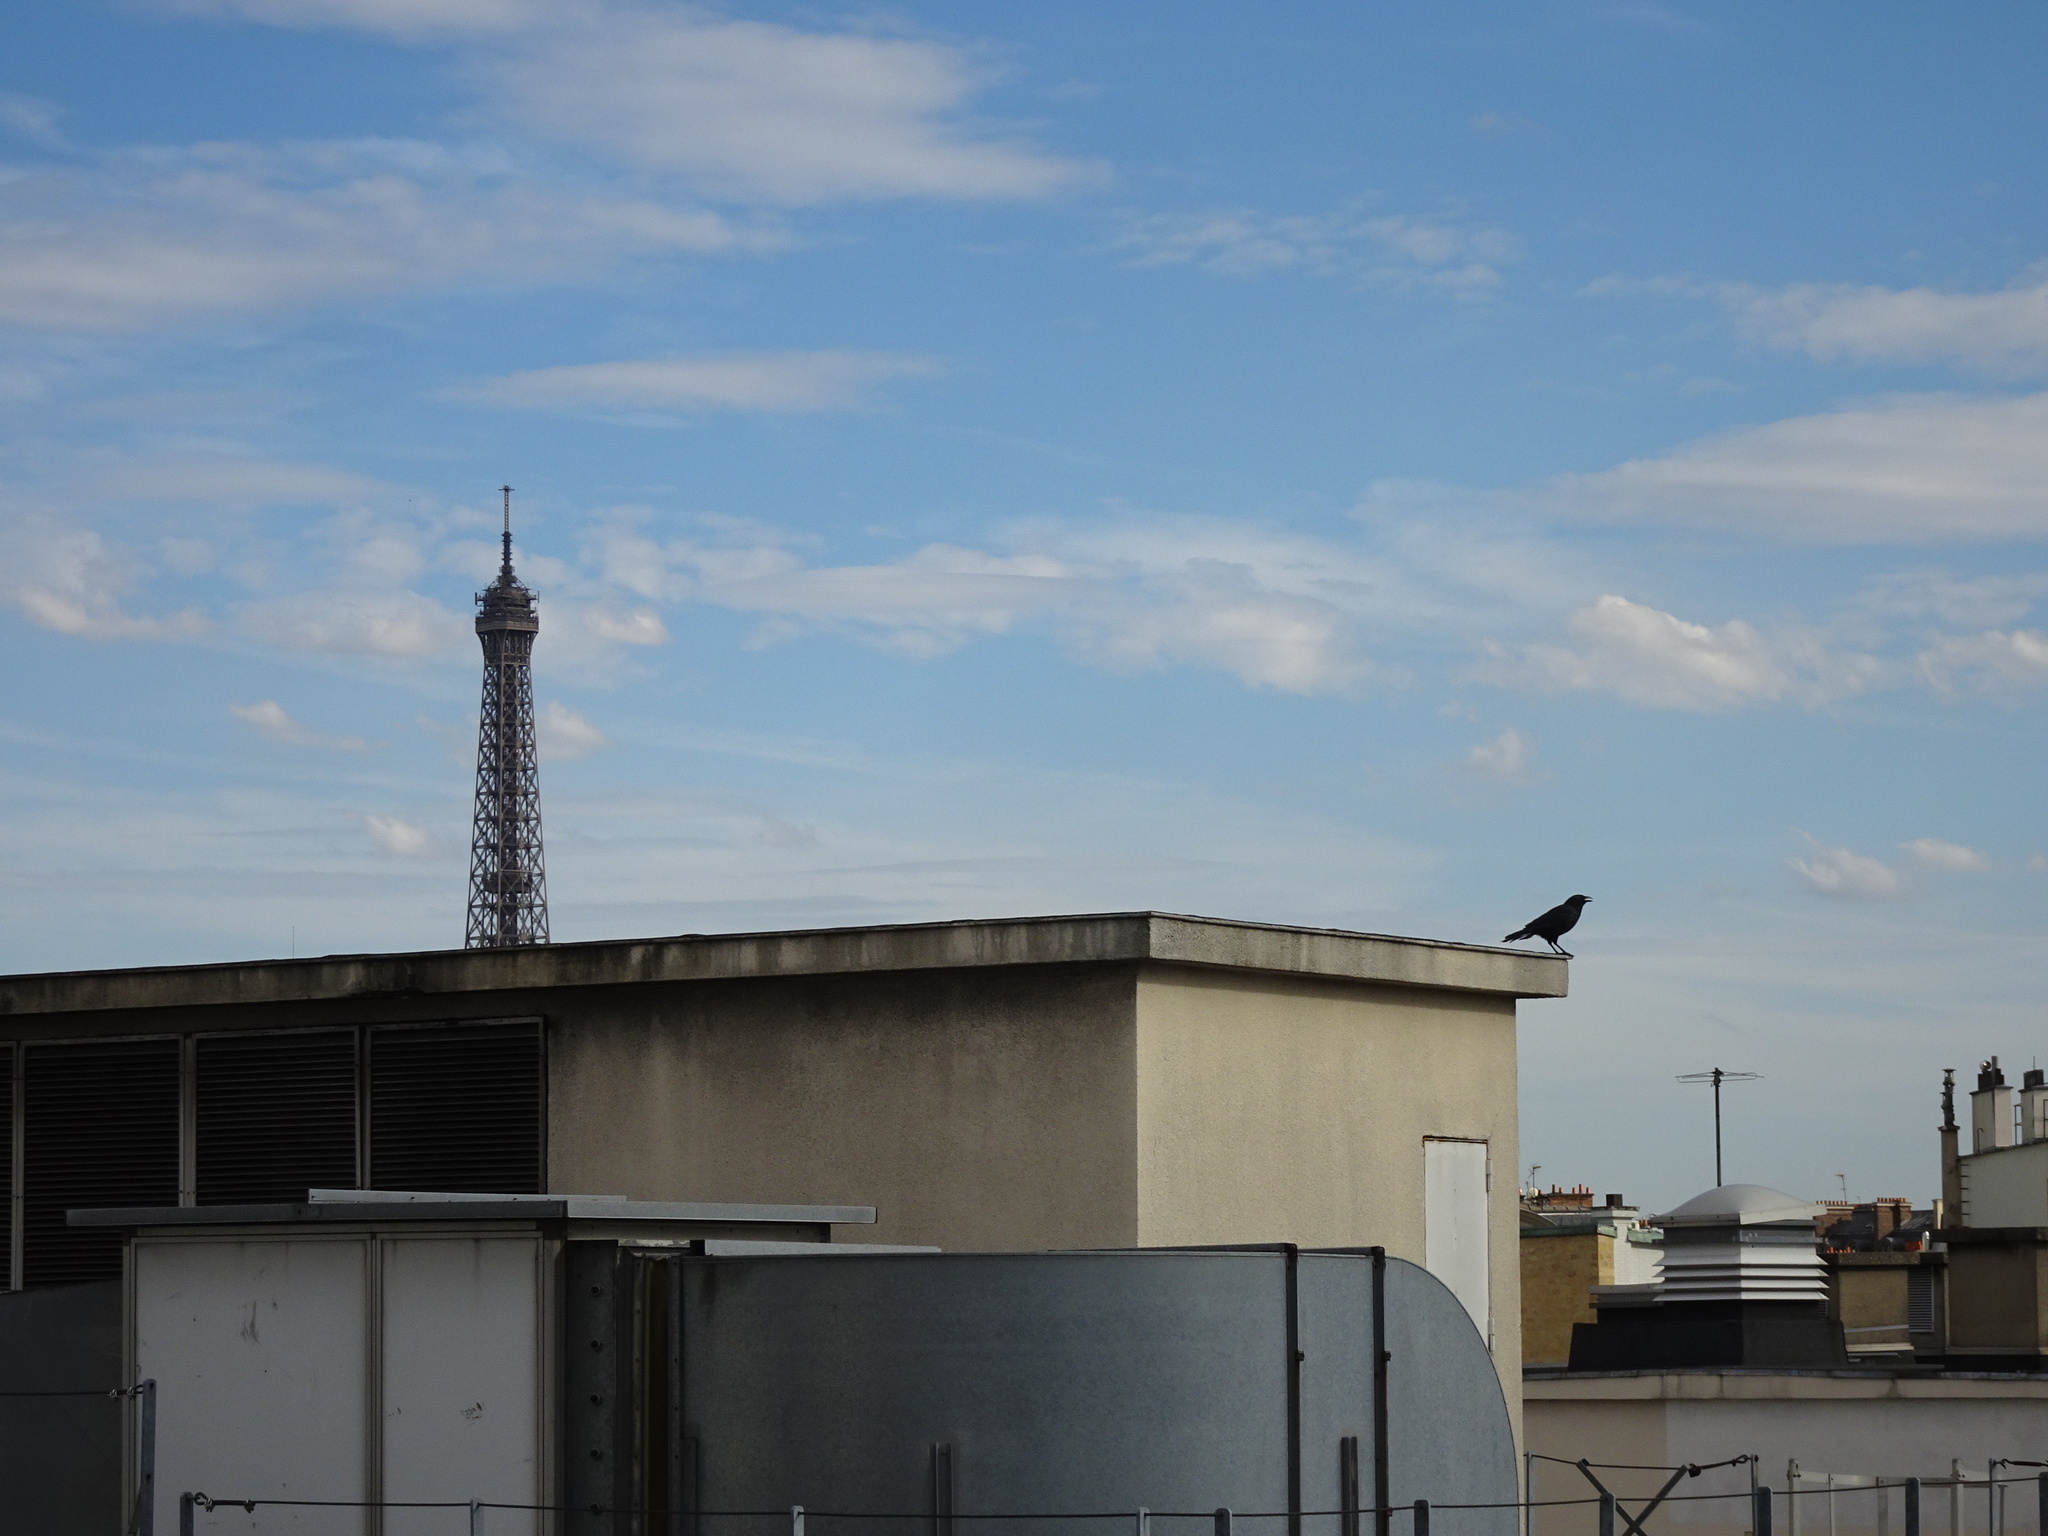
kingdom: Animalia
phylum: Chordata
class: Aves
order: Passeriformes
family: Corvidae
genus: Corvus
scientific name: Corvus corone
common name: Carrion crow
